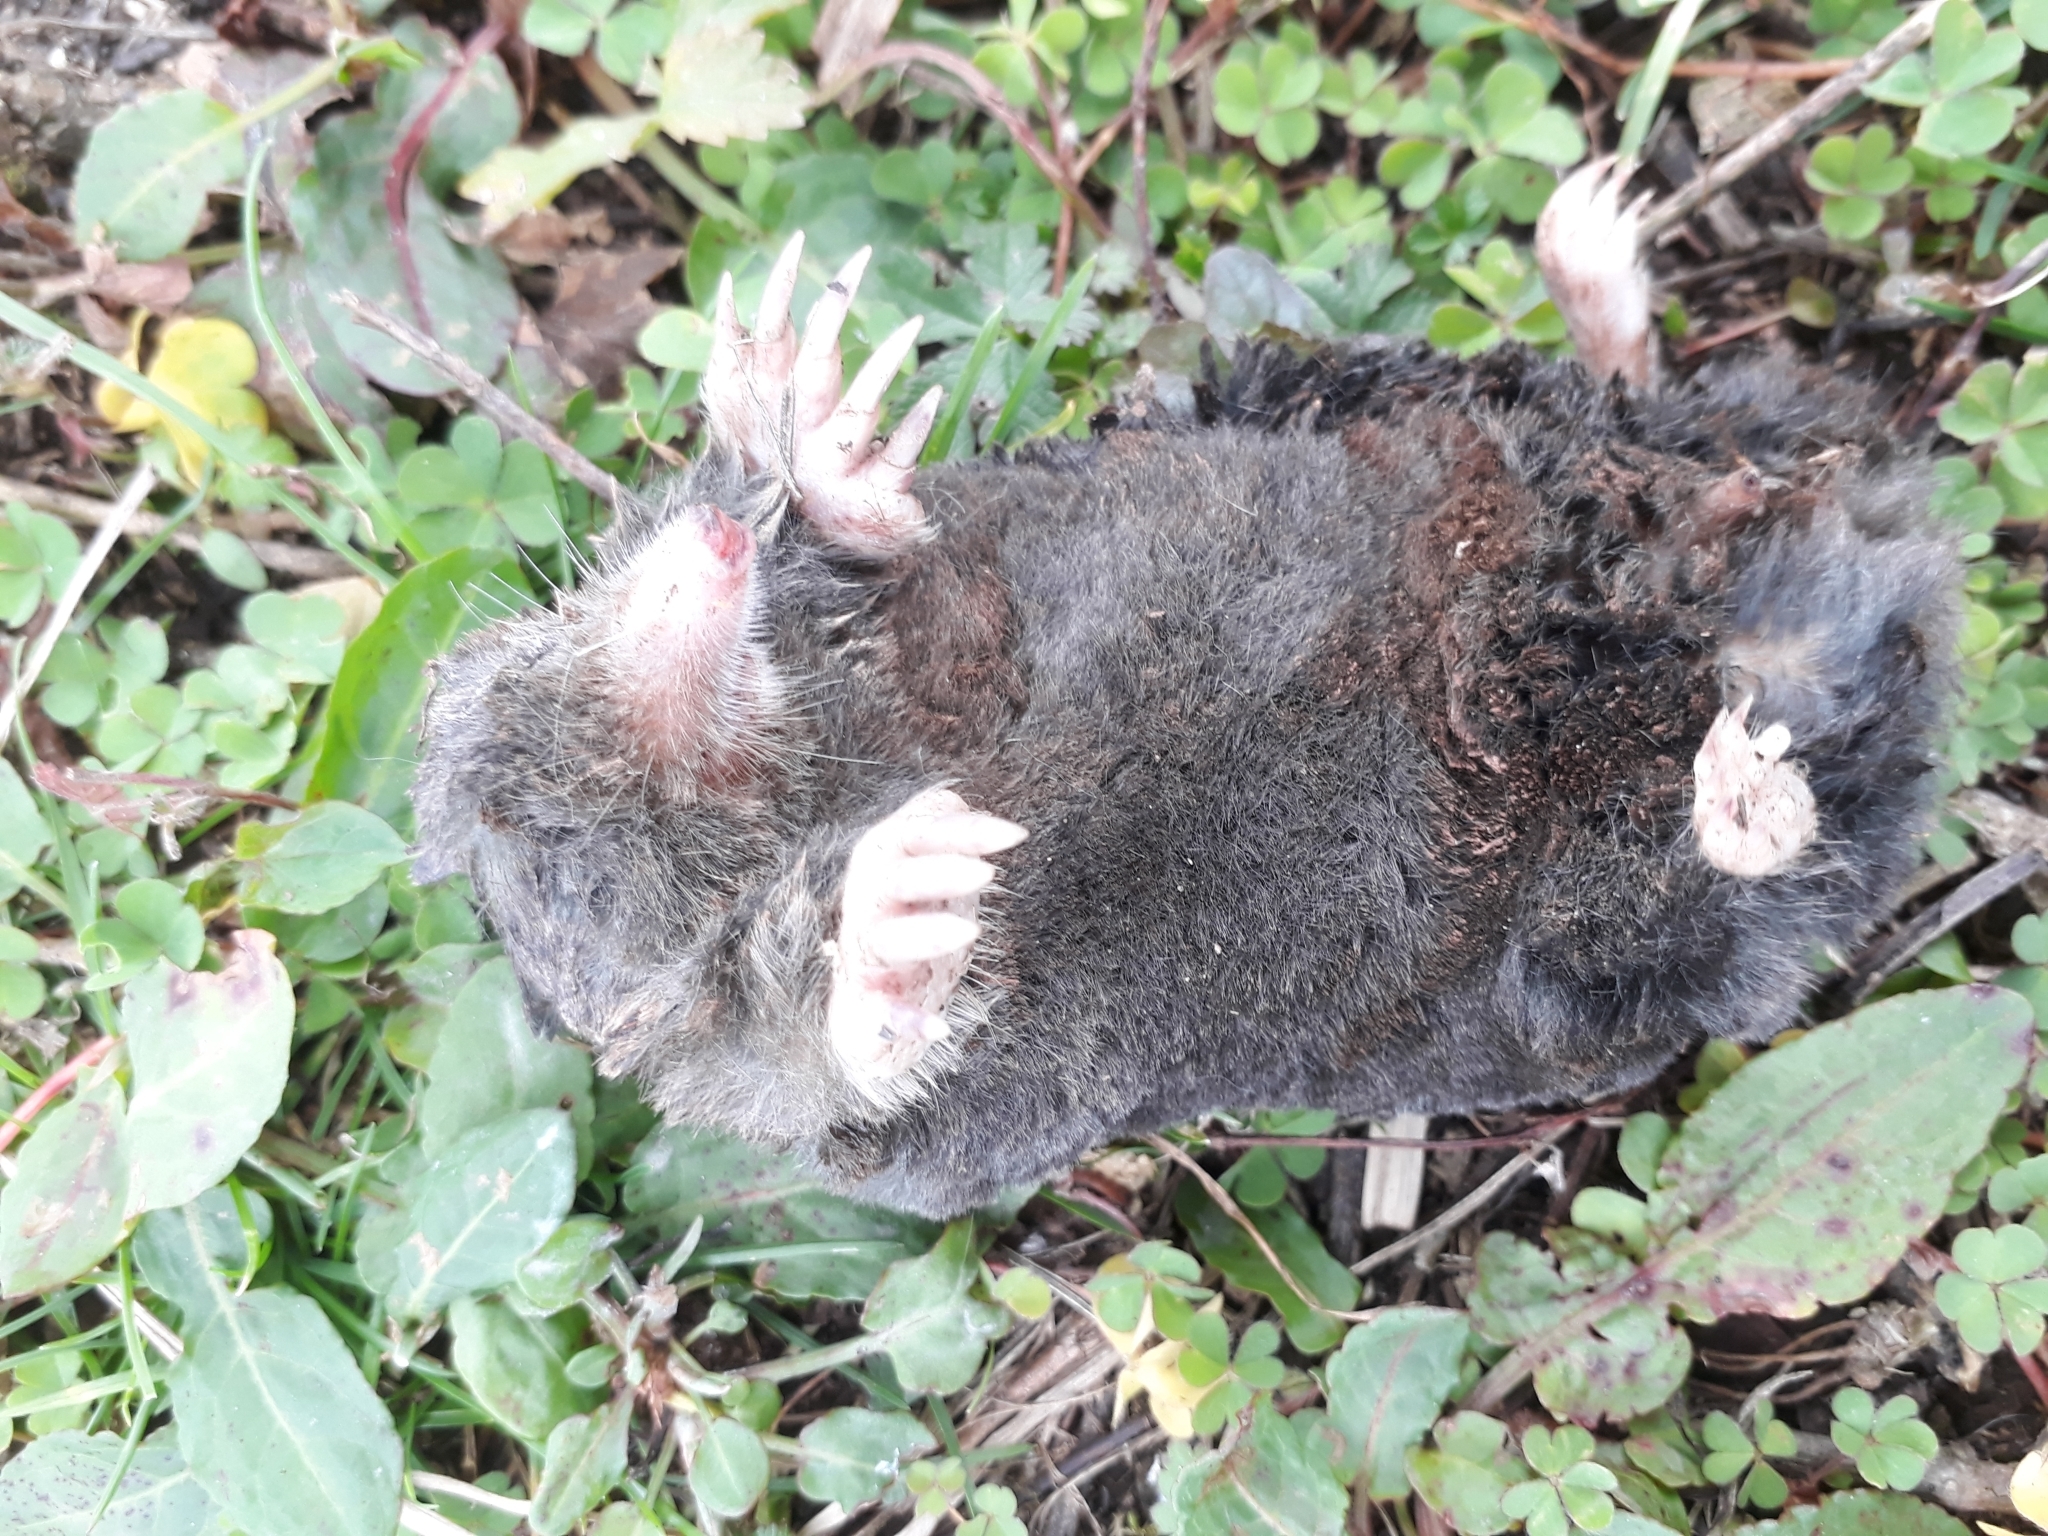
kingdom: Animalia
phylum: Chordata
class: Mammalia
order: Soricomorpha
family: Talpidae
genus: Talpa
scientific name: Talpa talyschensis
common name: Talysch mole
